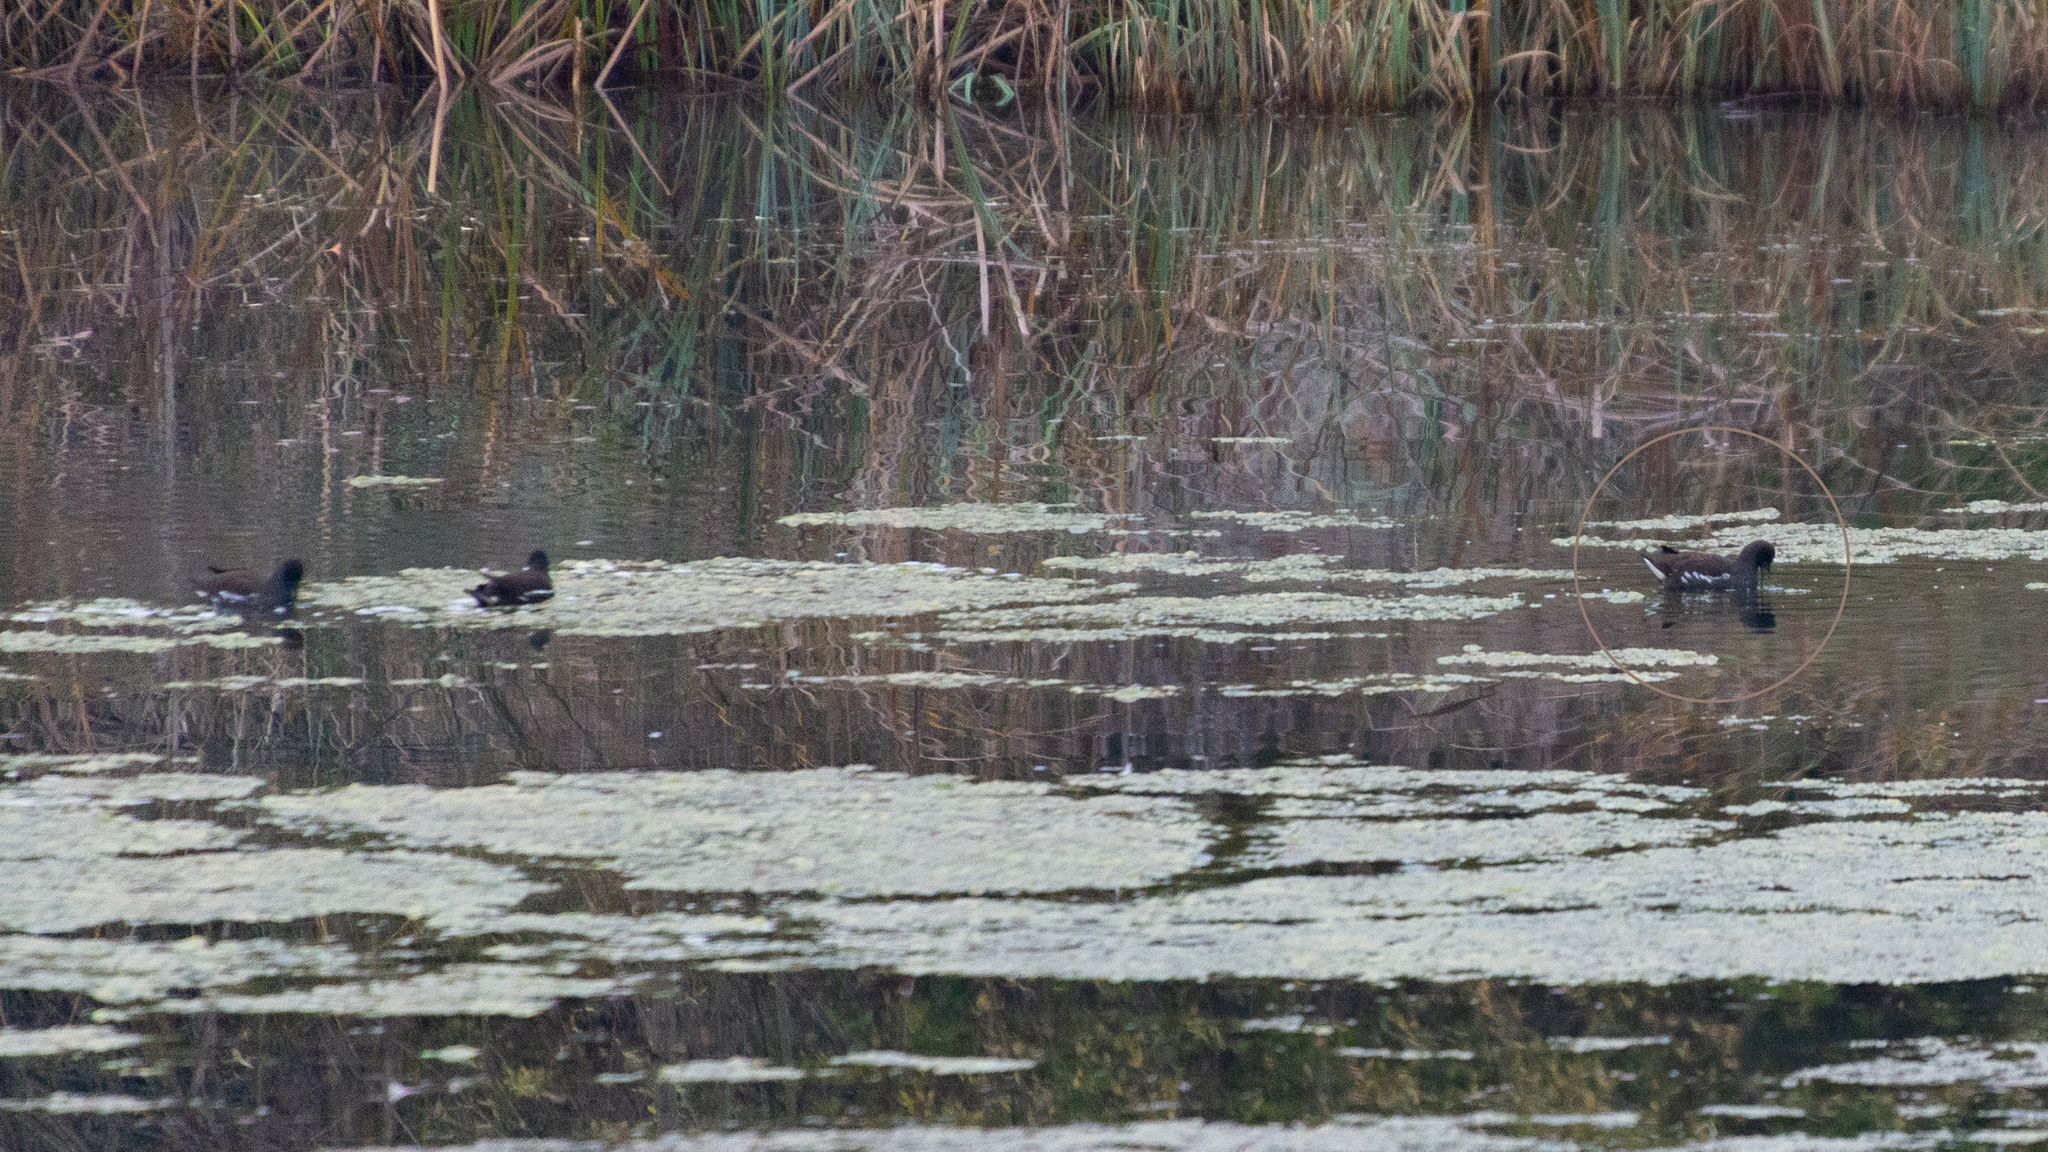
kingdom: Animalia
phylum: Chordata
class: Aves
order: Gruiformes
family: Rallidae
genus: Gallinula
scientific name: Gallinula chloropus
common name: Common moorhen
